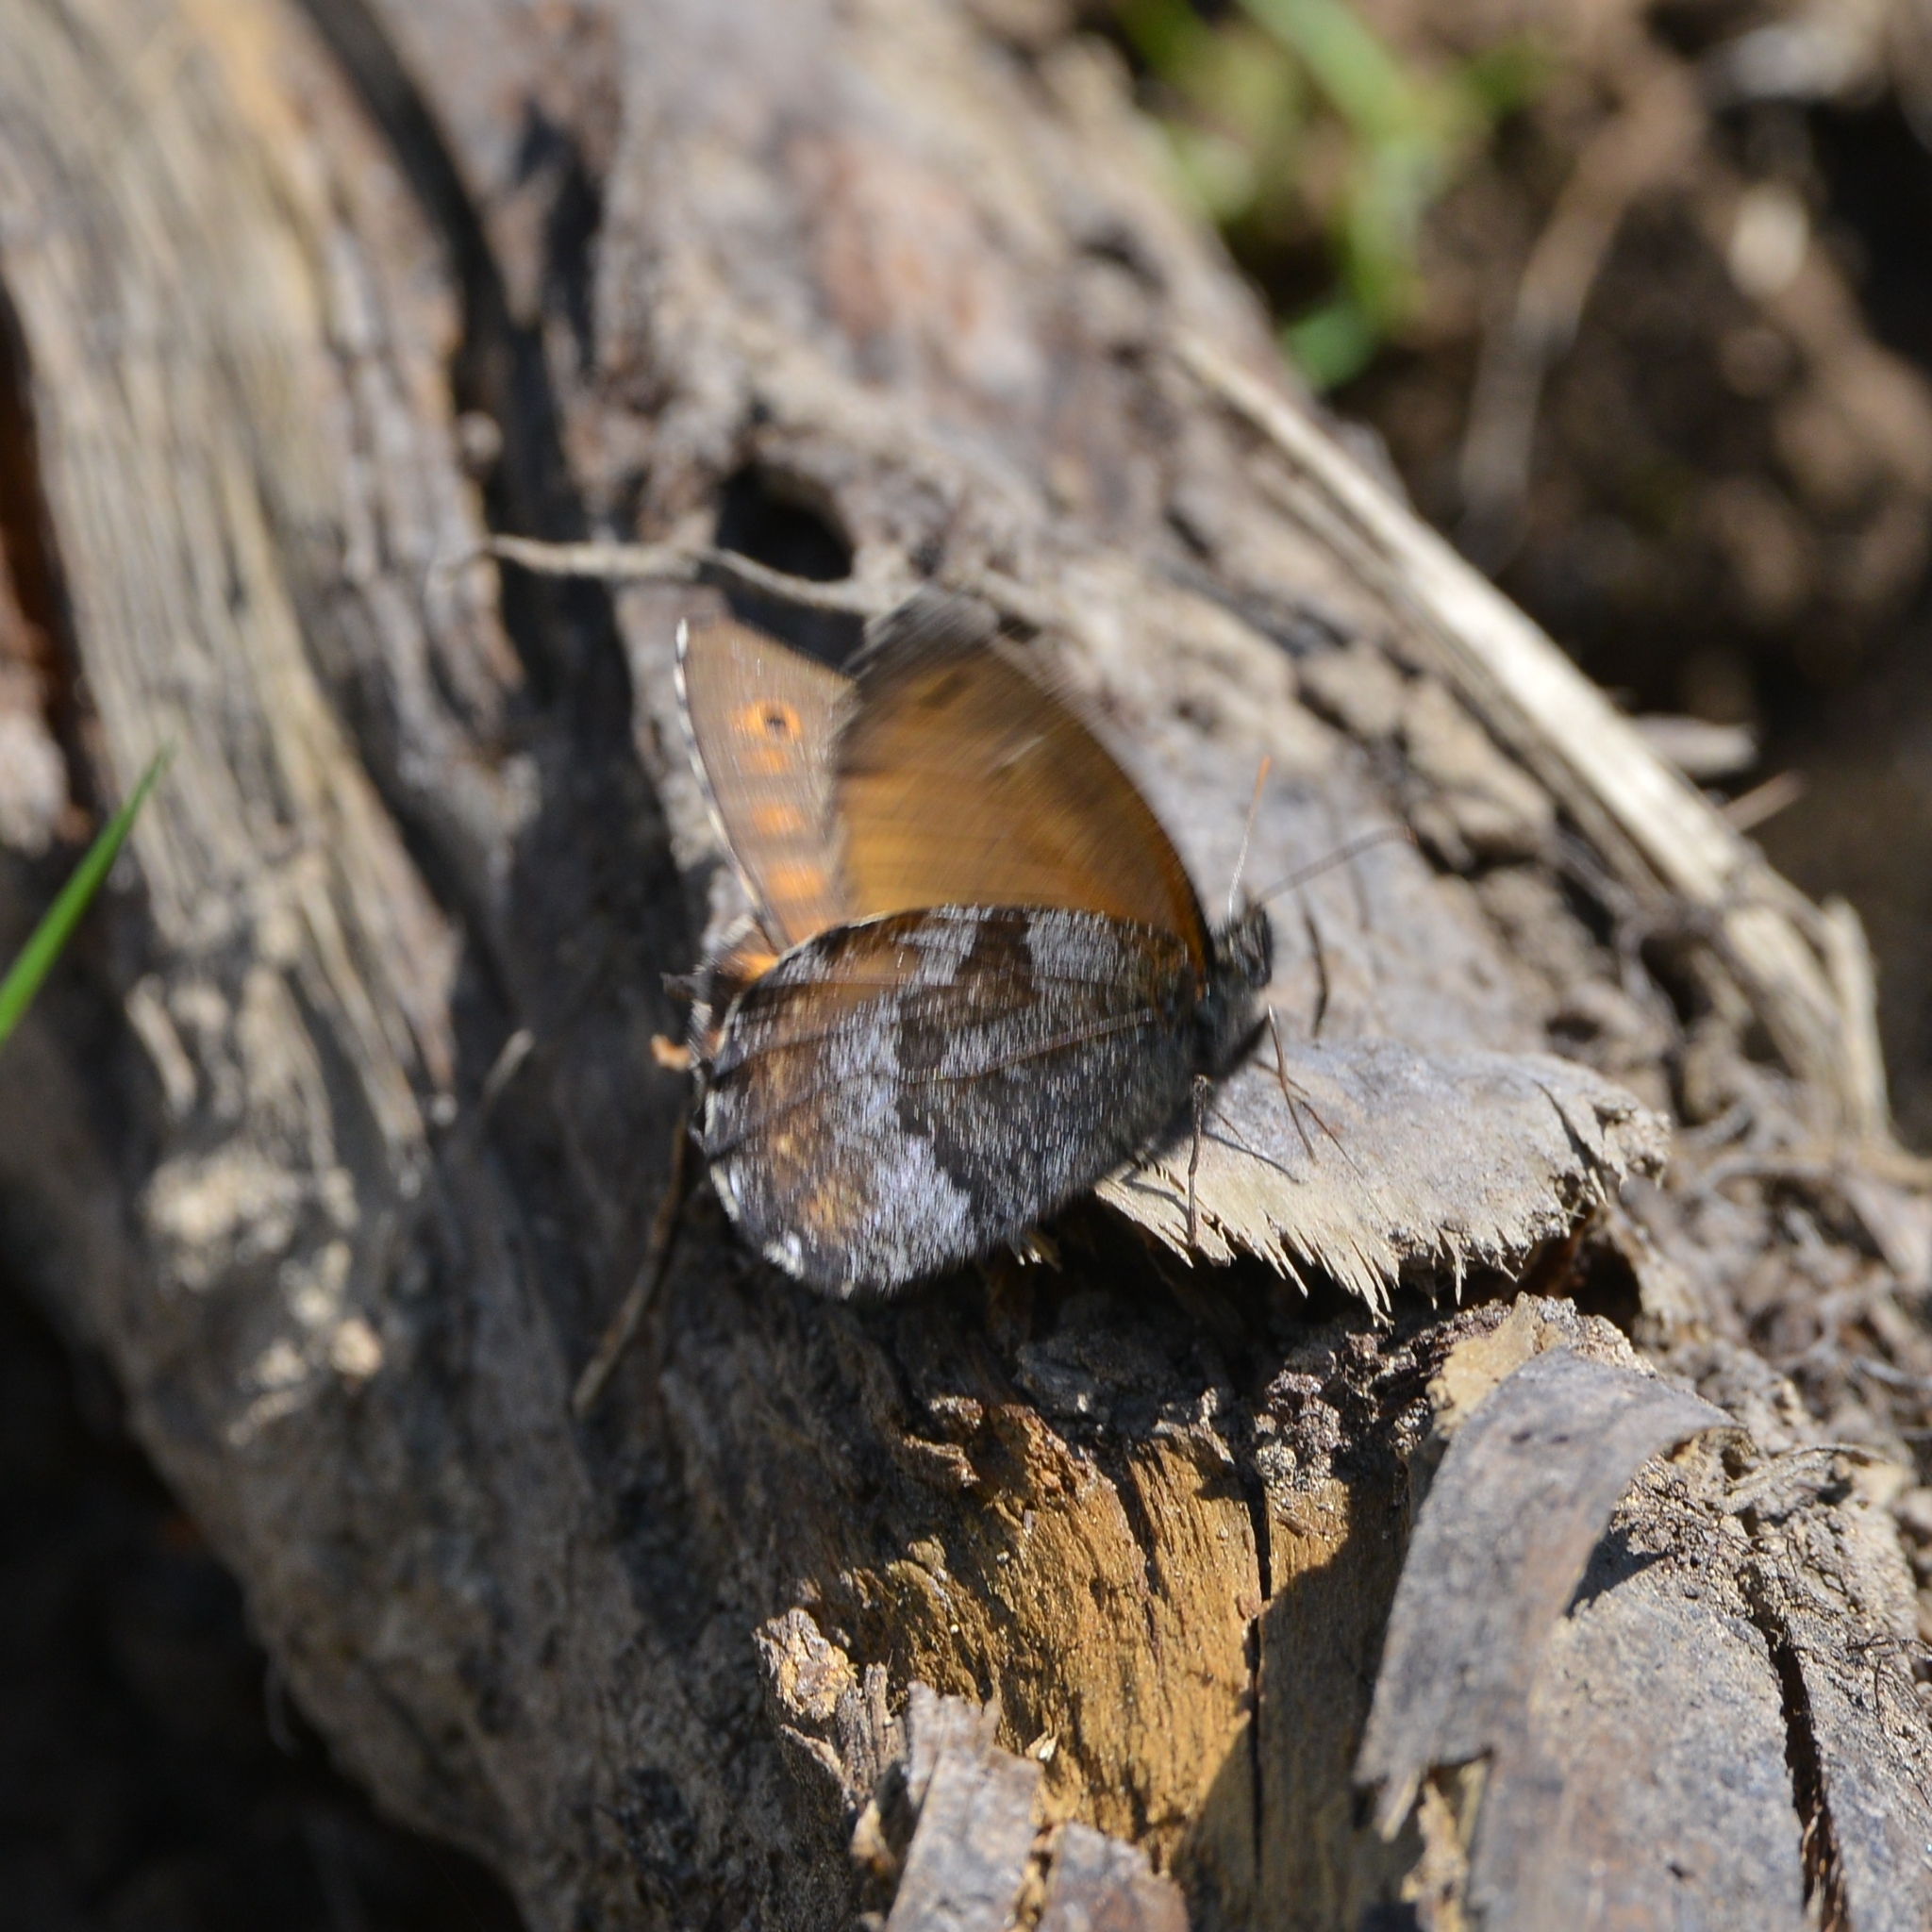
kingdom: Animalia
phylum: Arthropoda
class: Insecta
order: Lepidoptera
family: Nymphalidae
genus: Oeneis
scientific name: Oeneis jutta
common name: Baltic grayling
